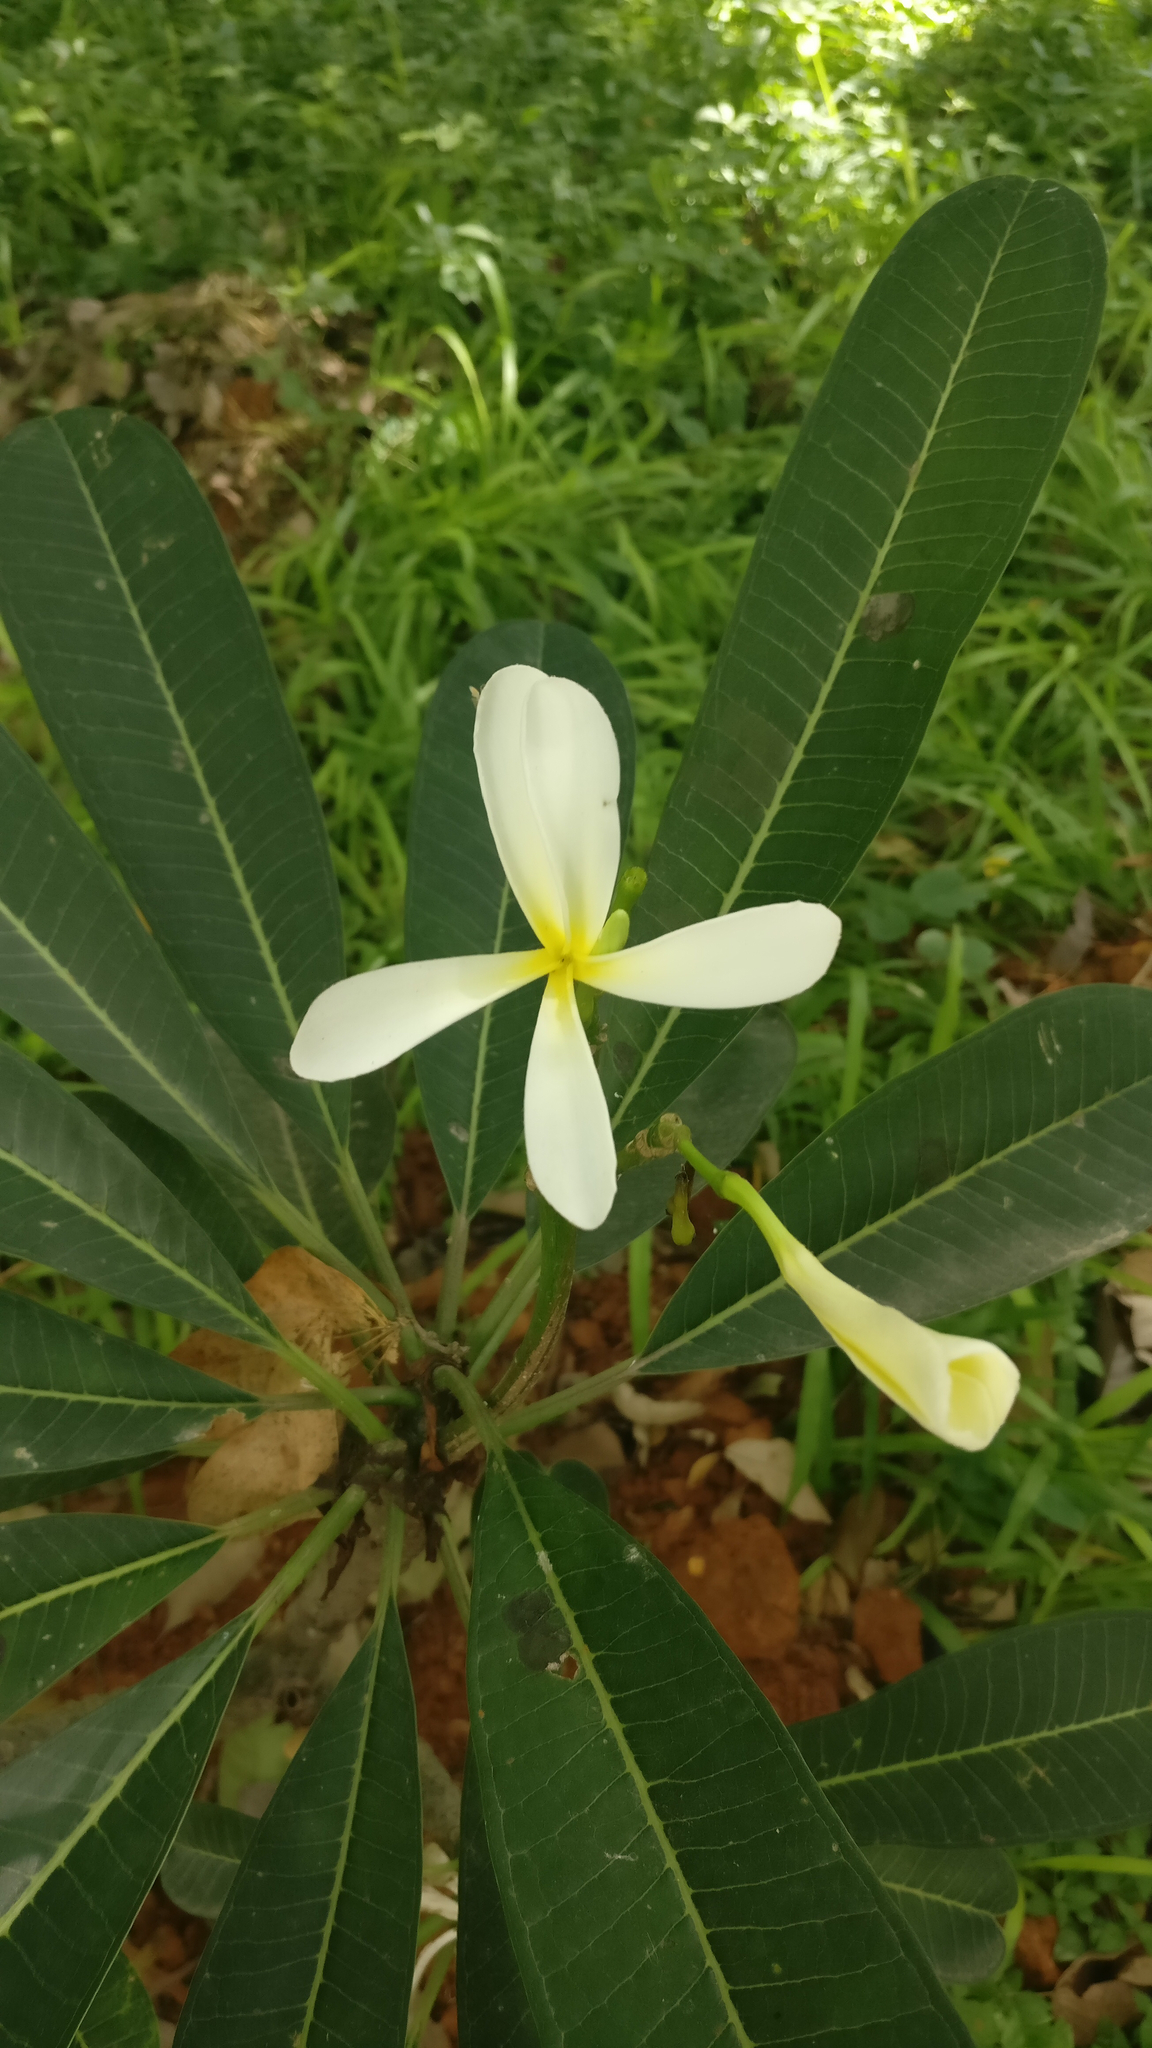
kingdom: Plantae
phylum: Tracheophyta
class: Magnoliopsida
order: Gentianales
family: Apocynaceae
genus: Plumeria
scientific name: Plumeria obtusa
